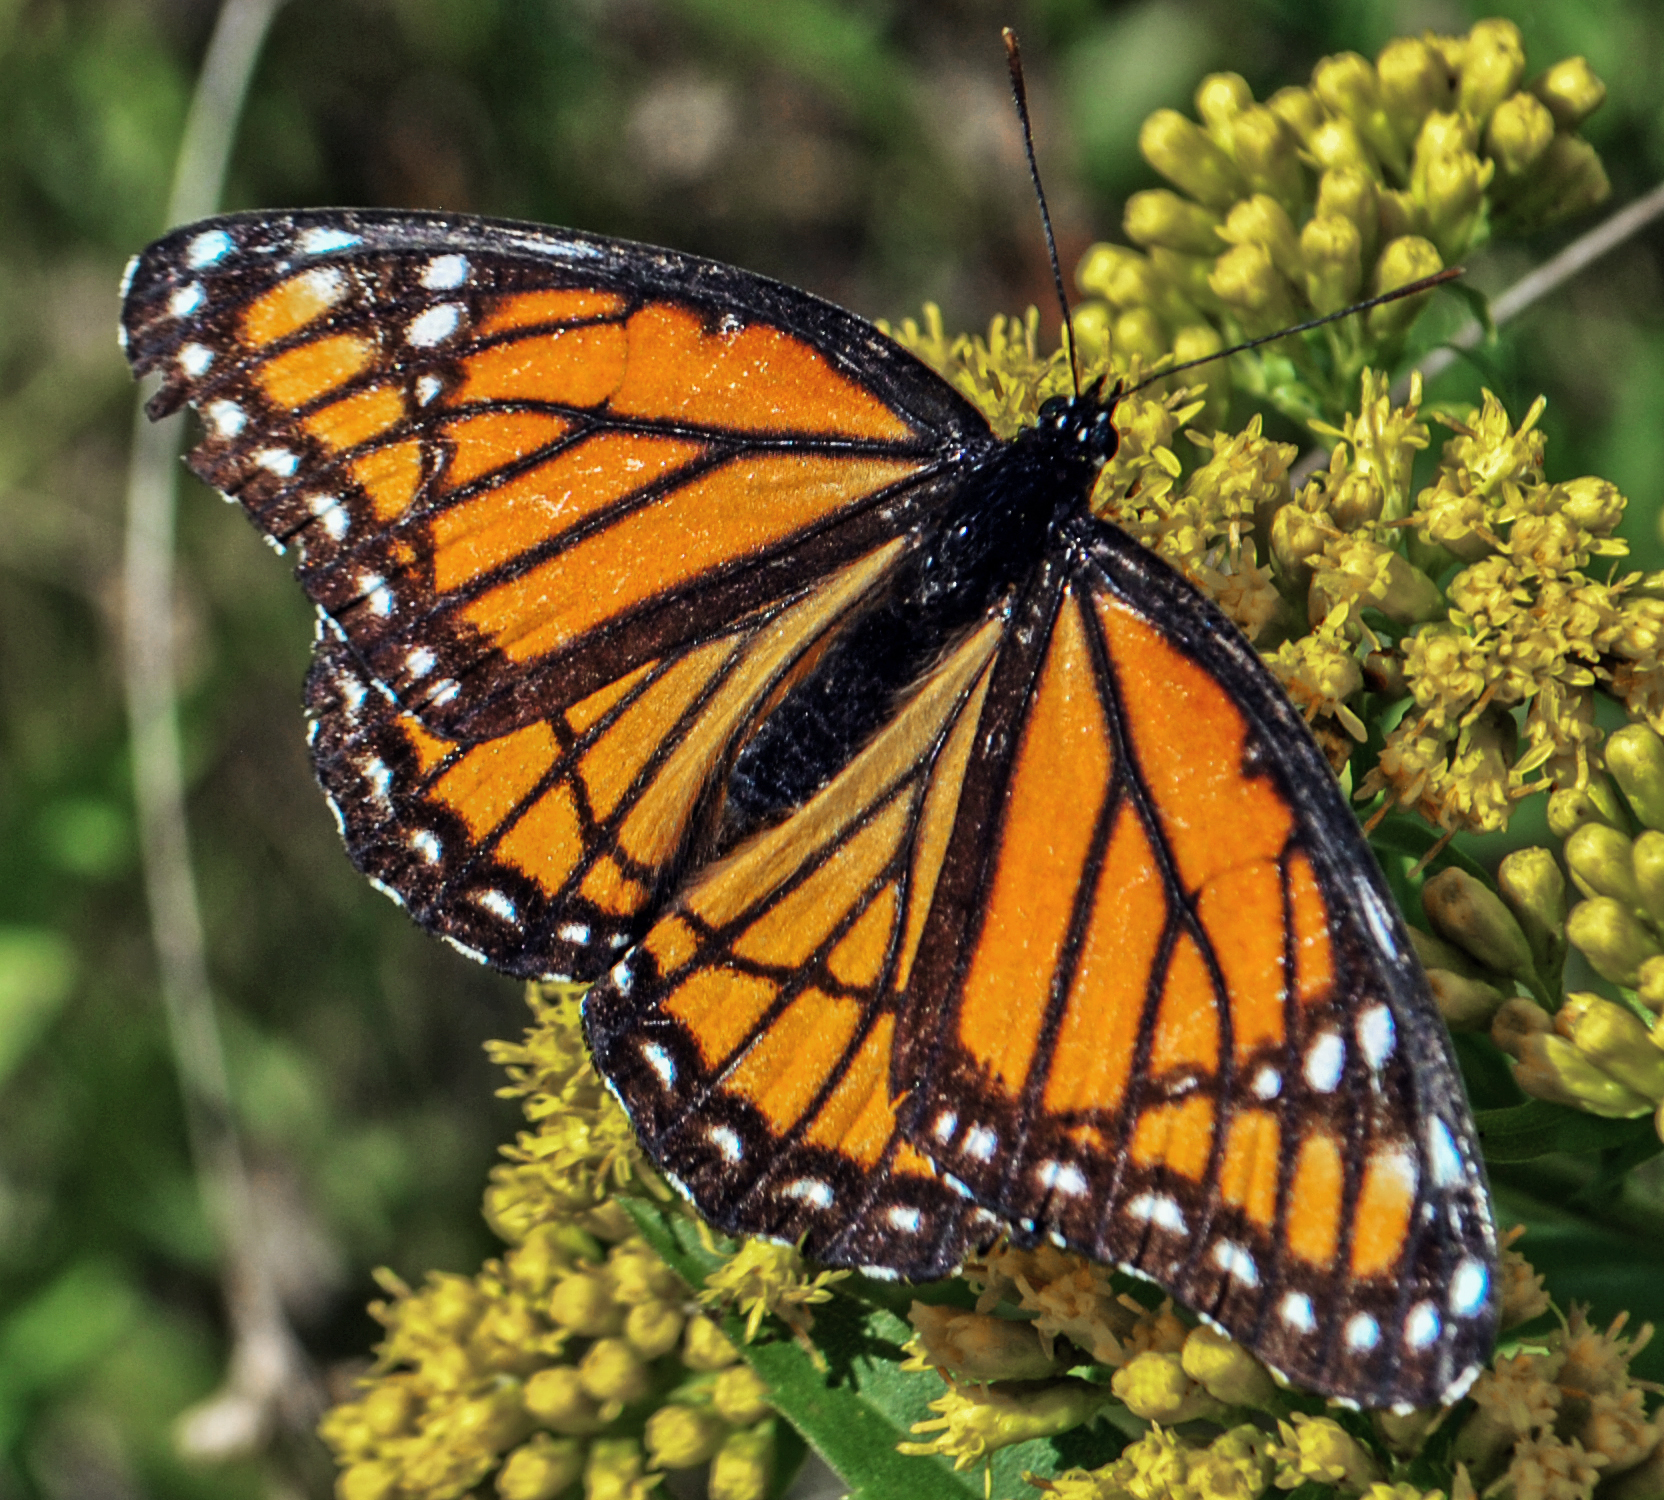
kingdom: Animalia
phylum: Arthropoda
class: Insecta
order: Lepidoptera
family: Nymphalidae
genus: Limenitis
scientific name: Limenitis archippus
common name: Viceroy
